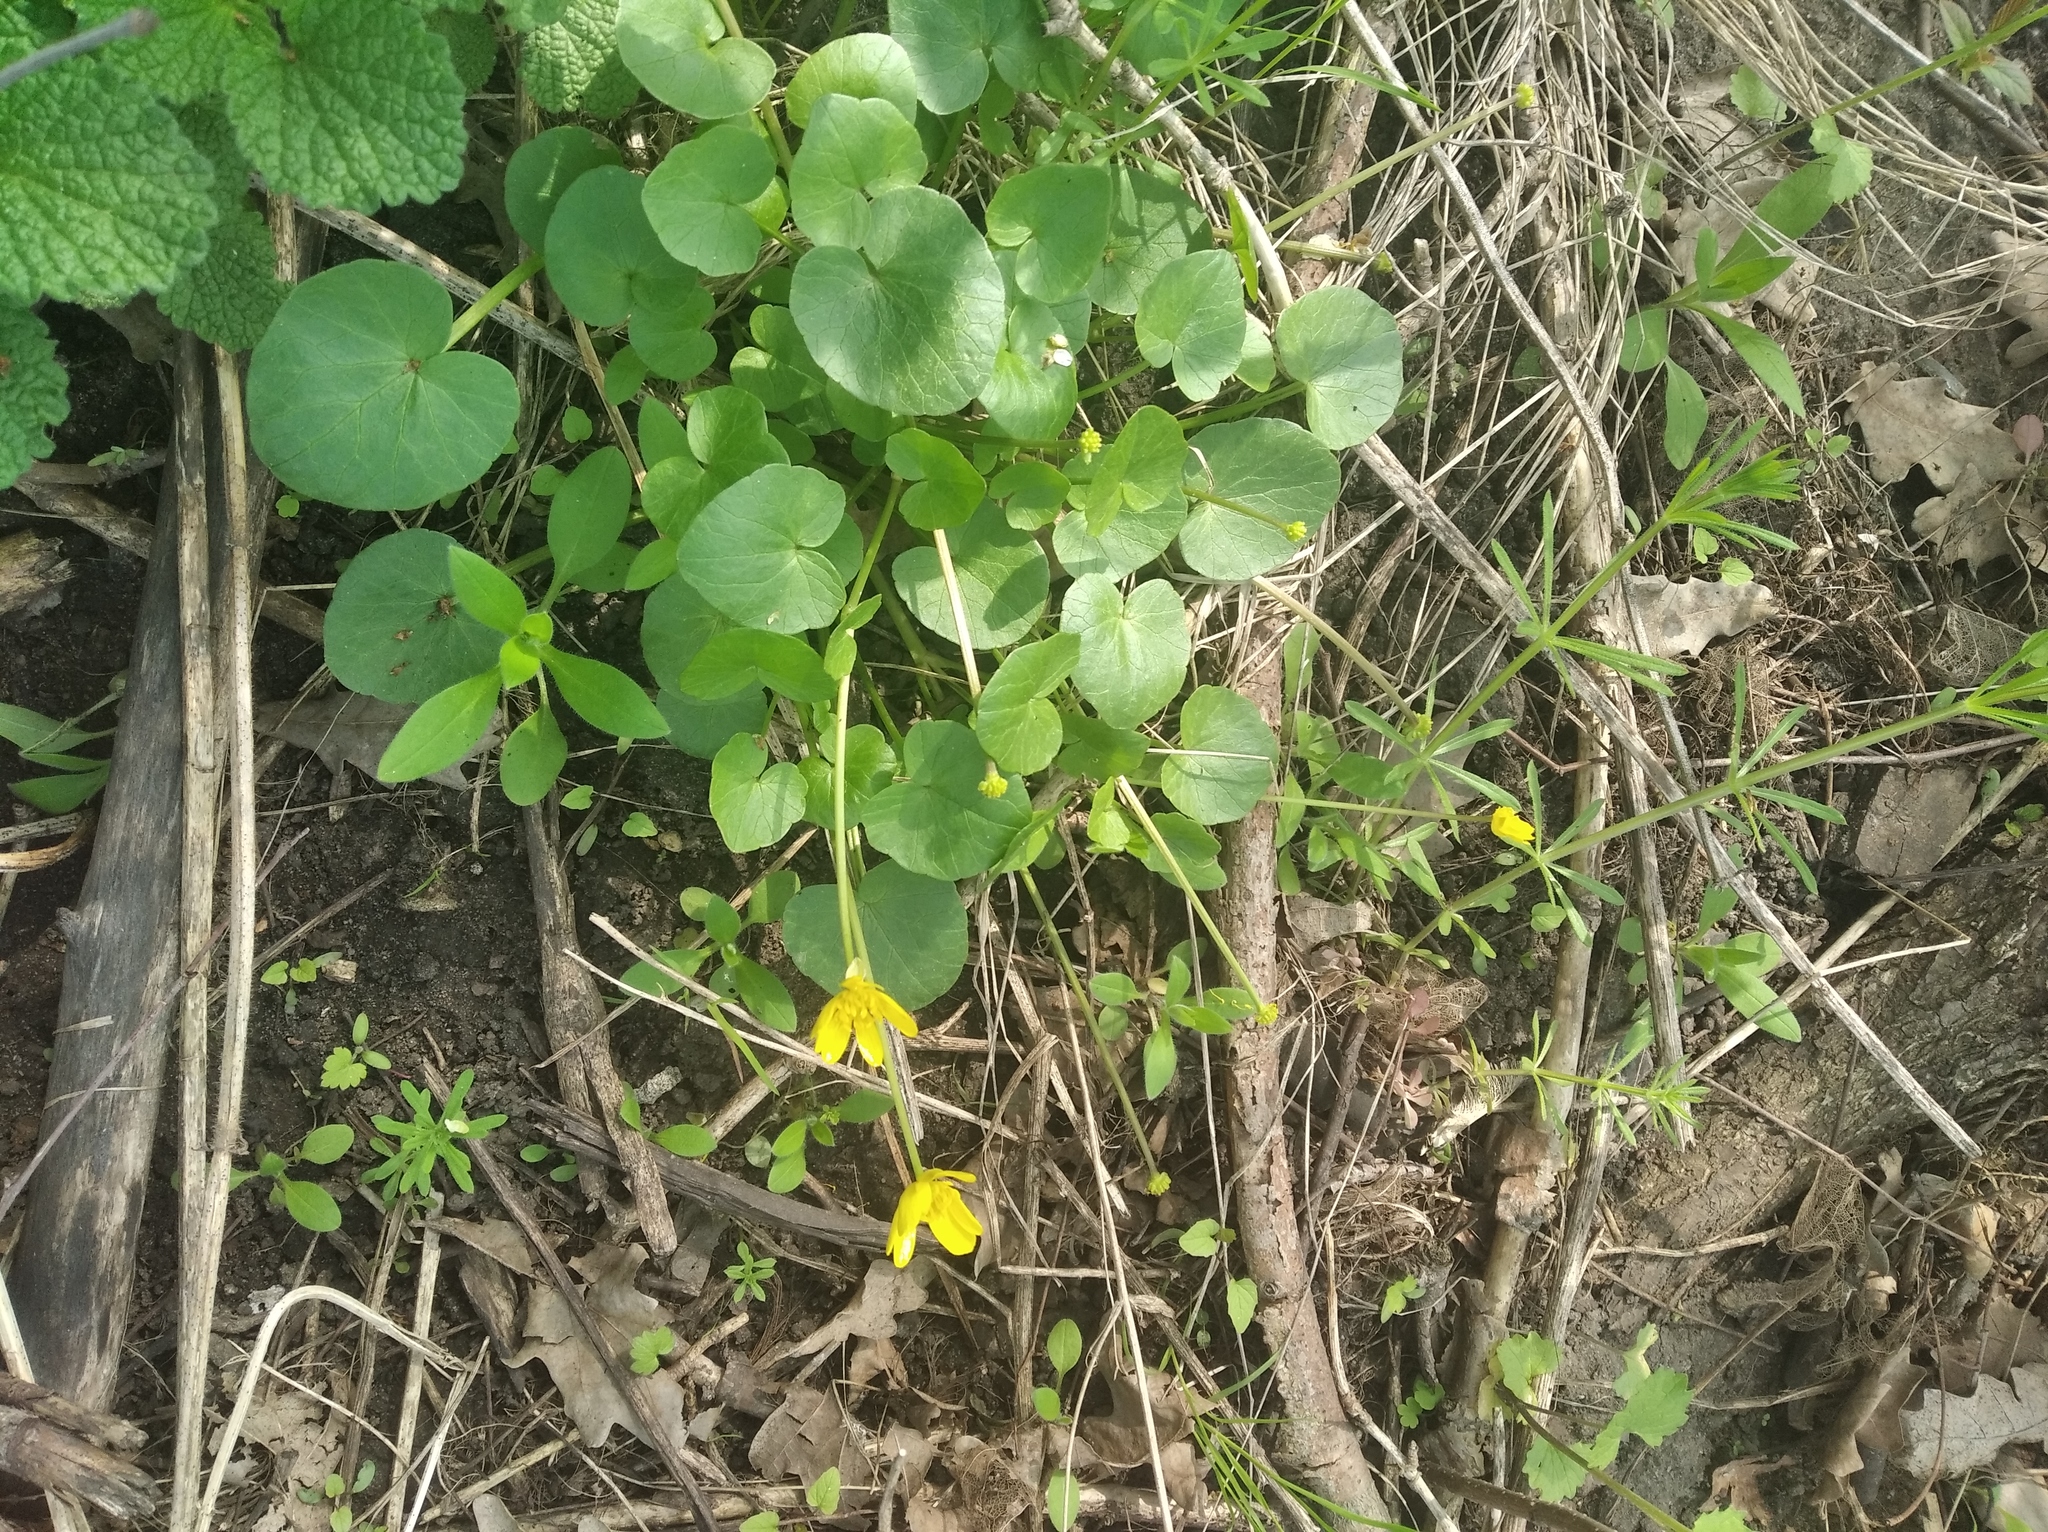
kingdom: Plantae
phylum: Tracheophyta
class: Magnoliopsida
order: Ranunculales
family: Ranunculaceae
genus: Ficaria
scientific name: Ficaria verna
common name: Lesser celandine
